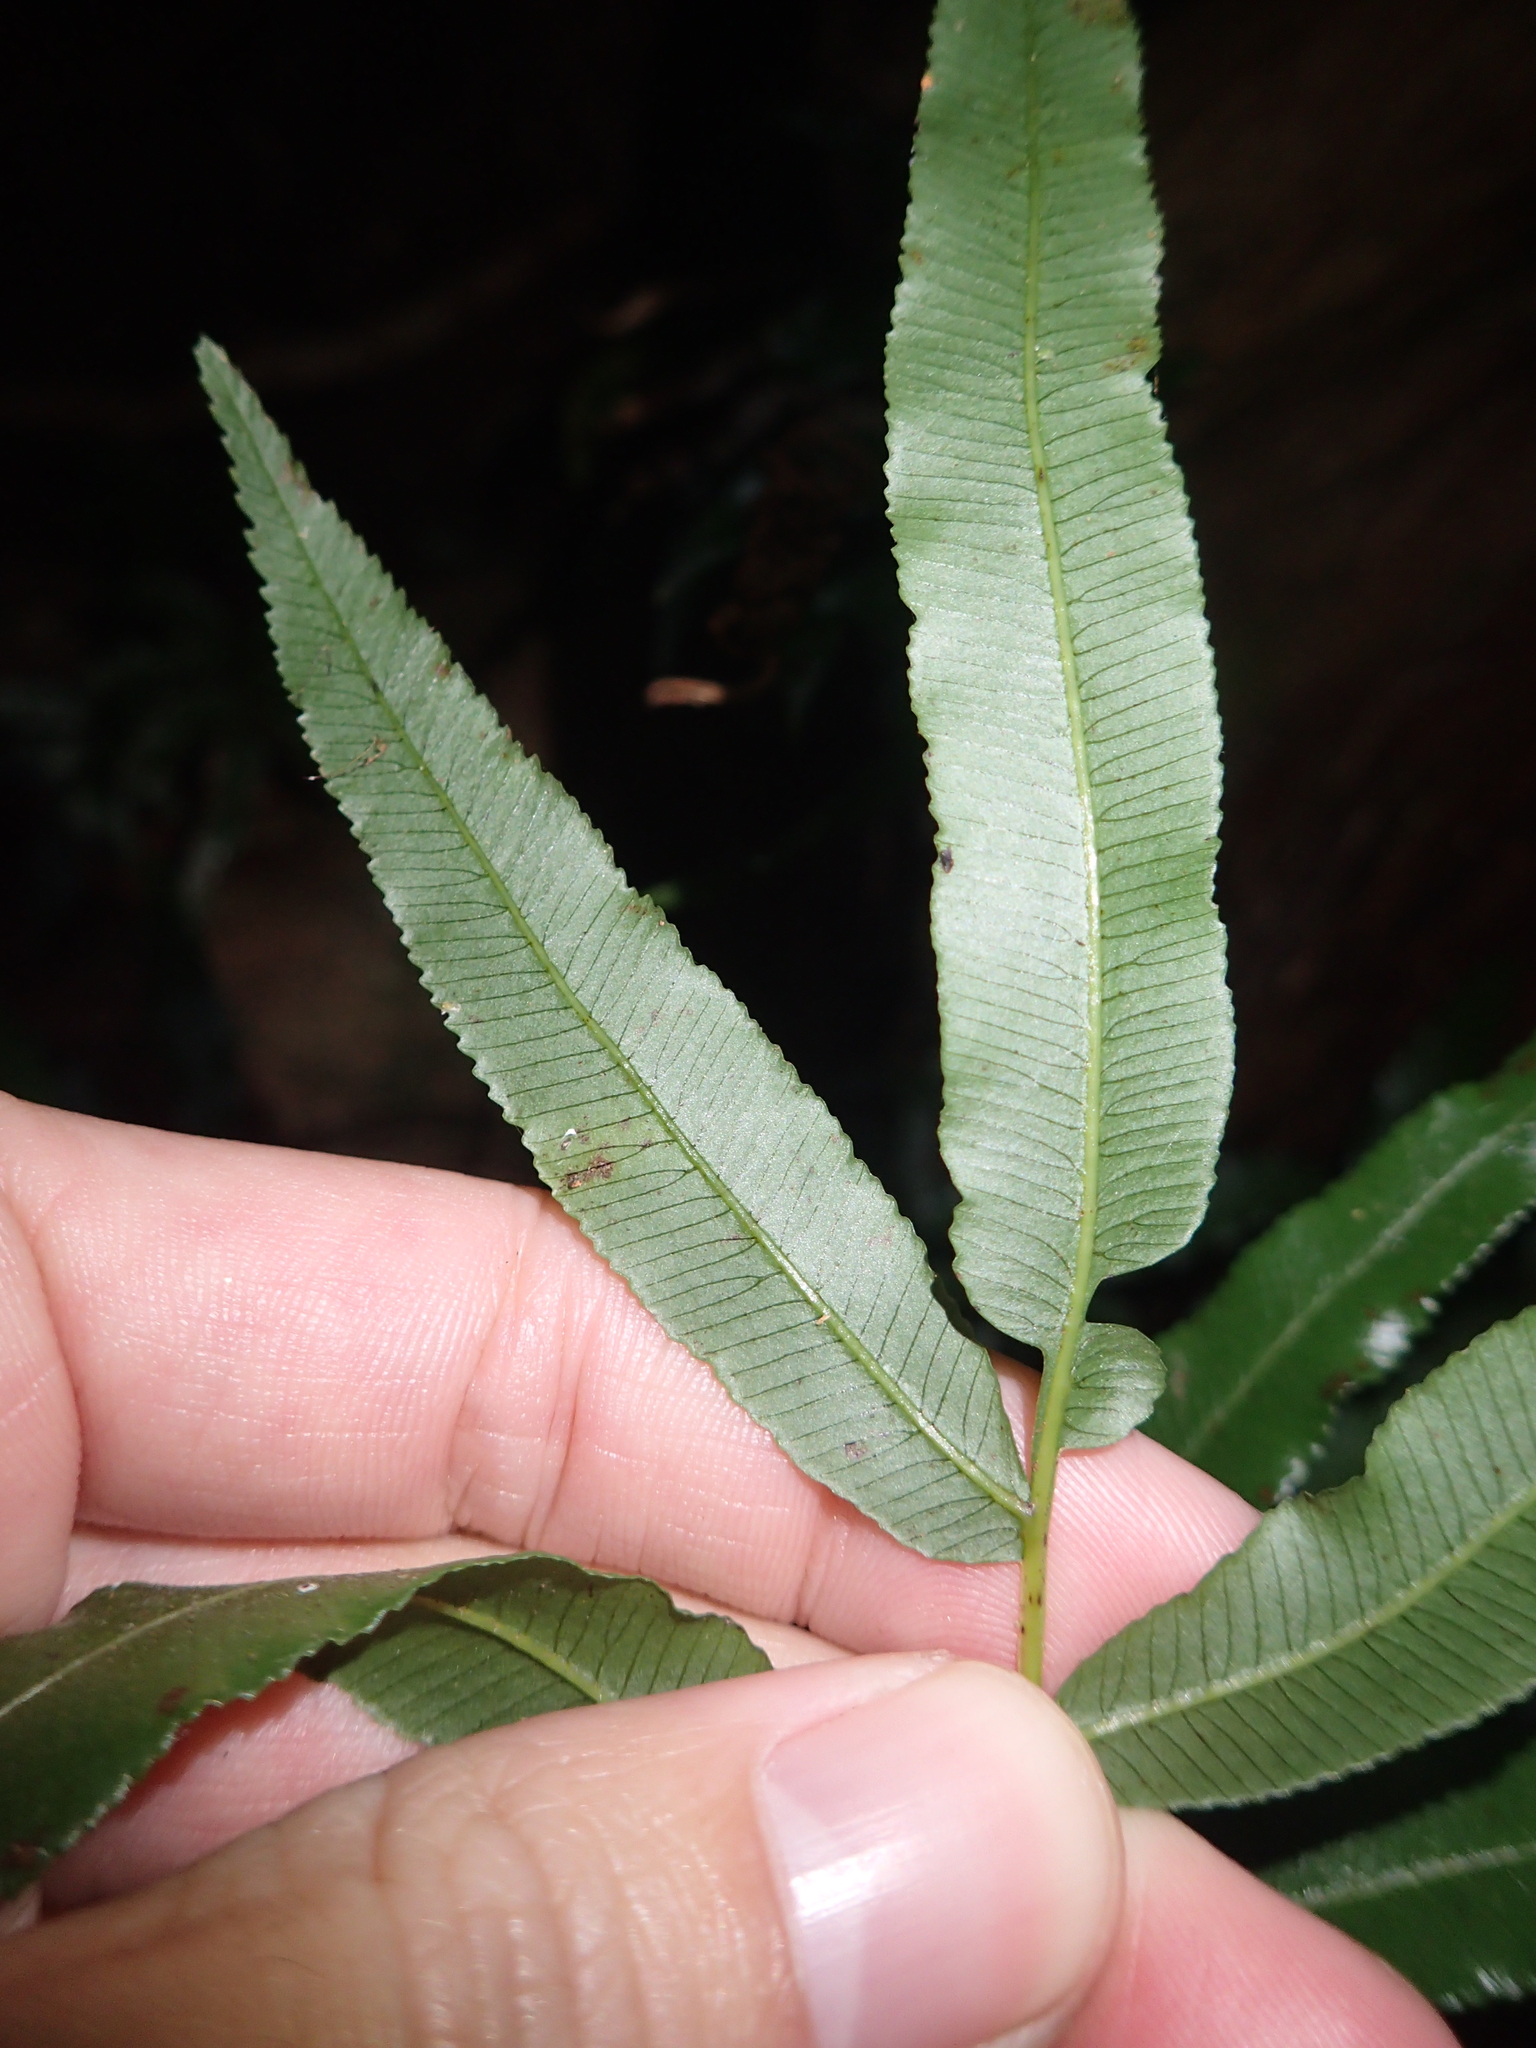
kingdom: Plantae
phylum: Tracheophyta
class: Polypodiopsida
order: Cyatheales
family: Plagiogyriaceae
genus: Plagiogyria
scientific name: Plagiogyria euphlebia
